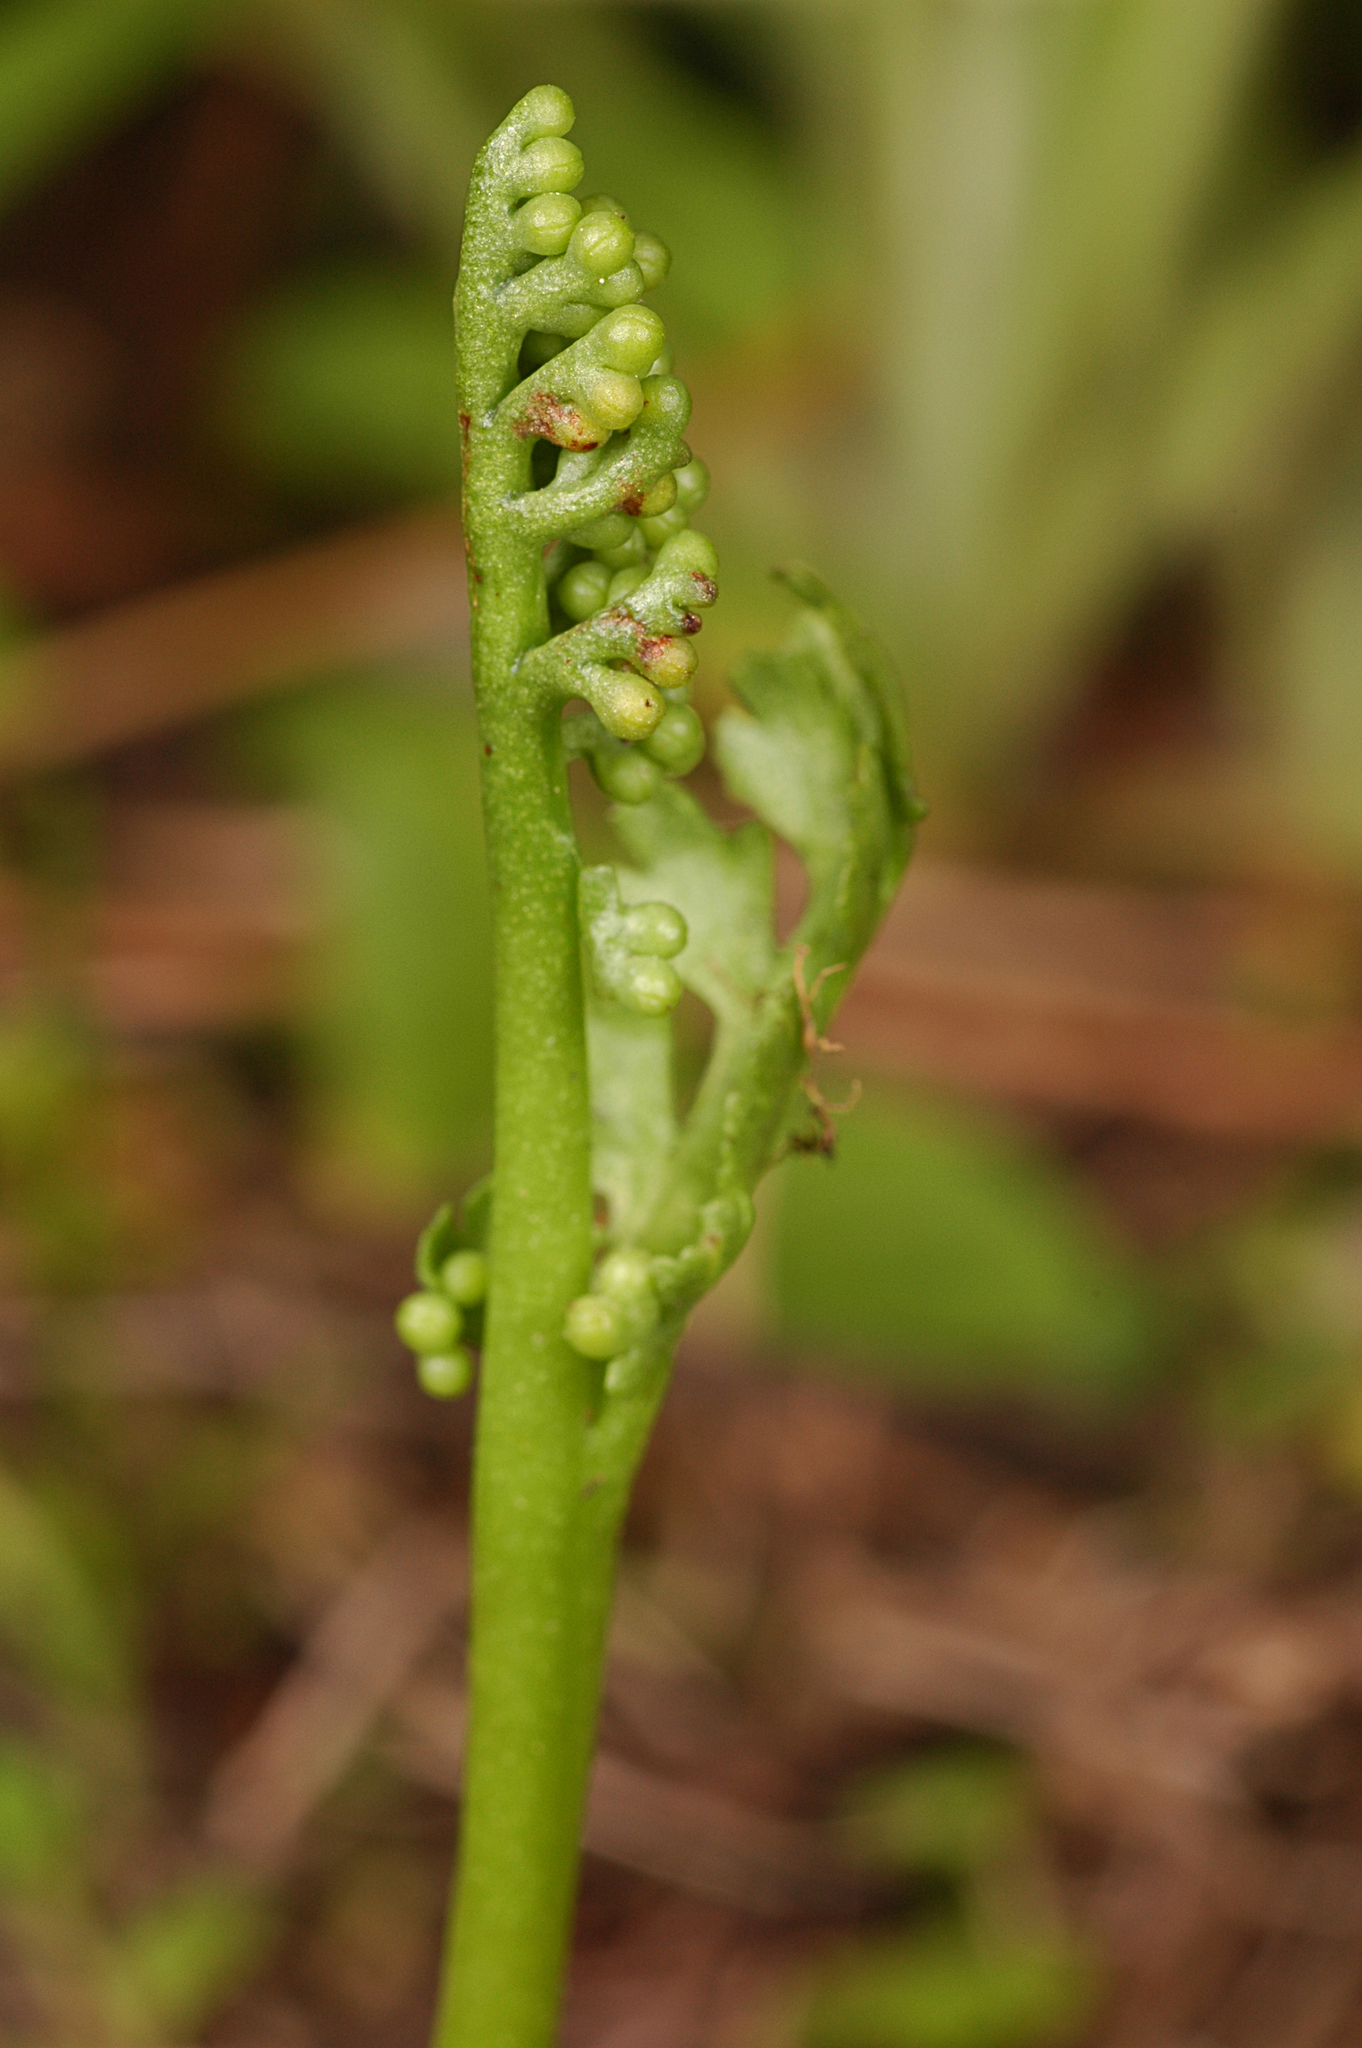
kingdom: Plantae
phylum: Tracheophyta
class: Polypodiopsida
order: Ophioglossales
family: Ophioglossaceae
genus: Botrychium
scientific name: Botrychium ascendens
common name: Ascending grapefern
